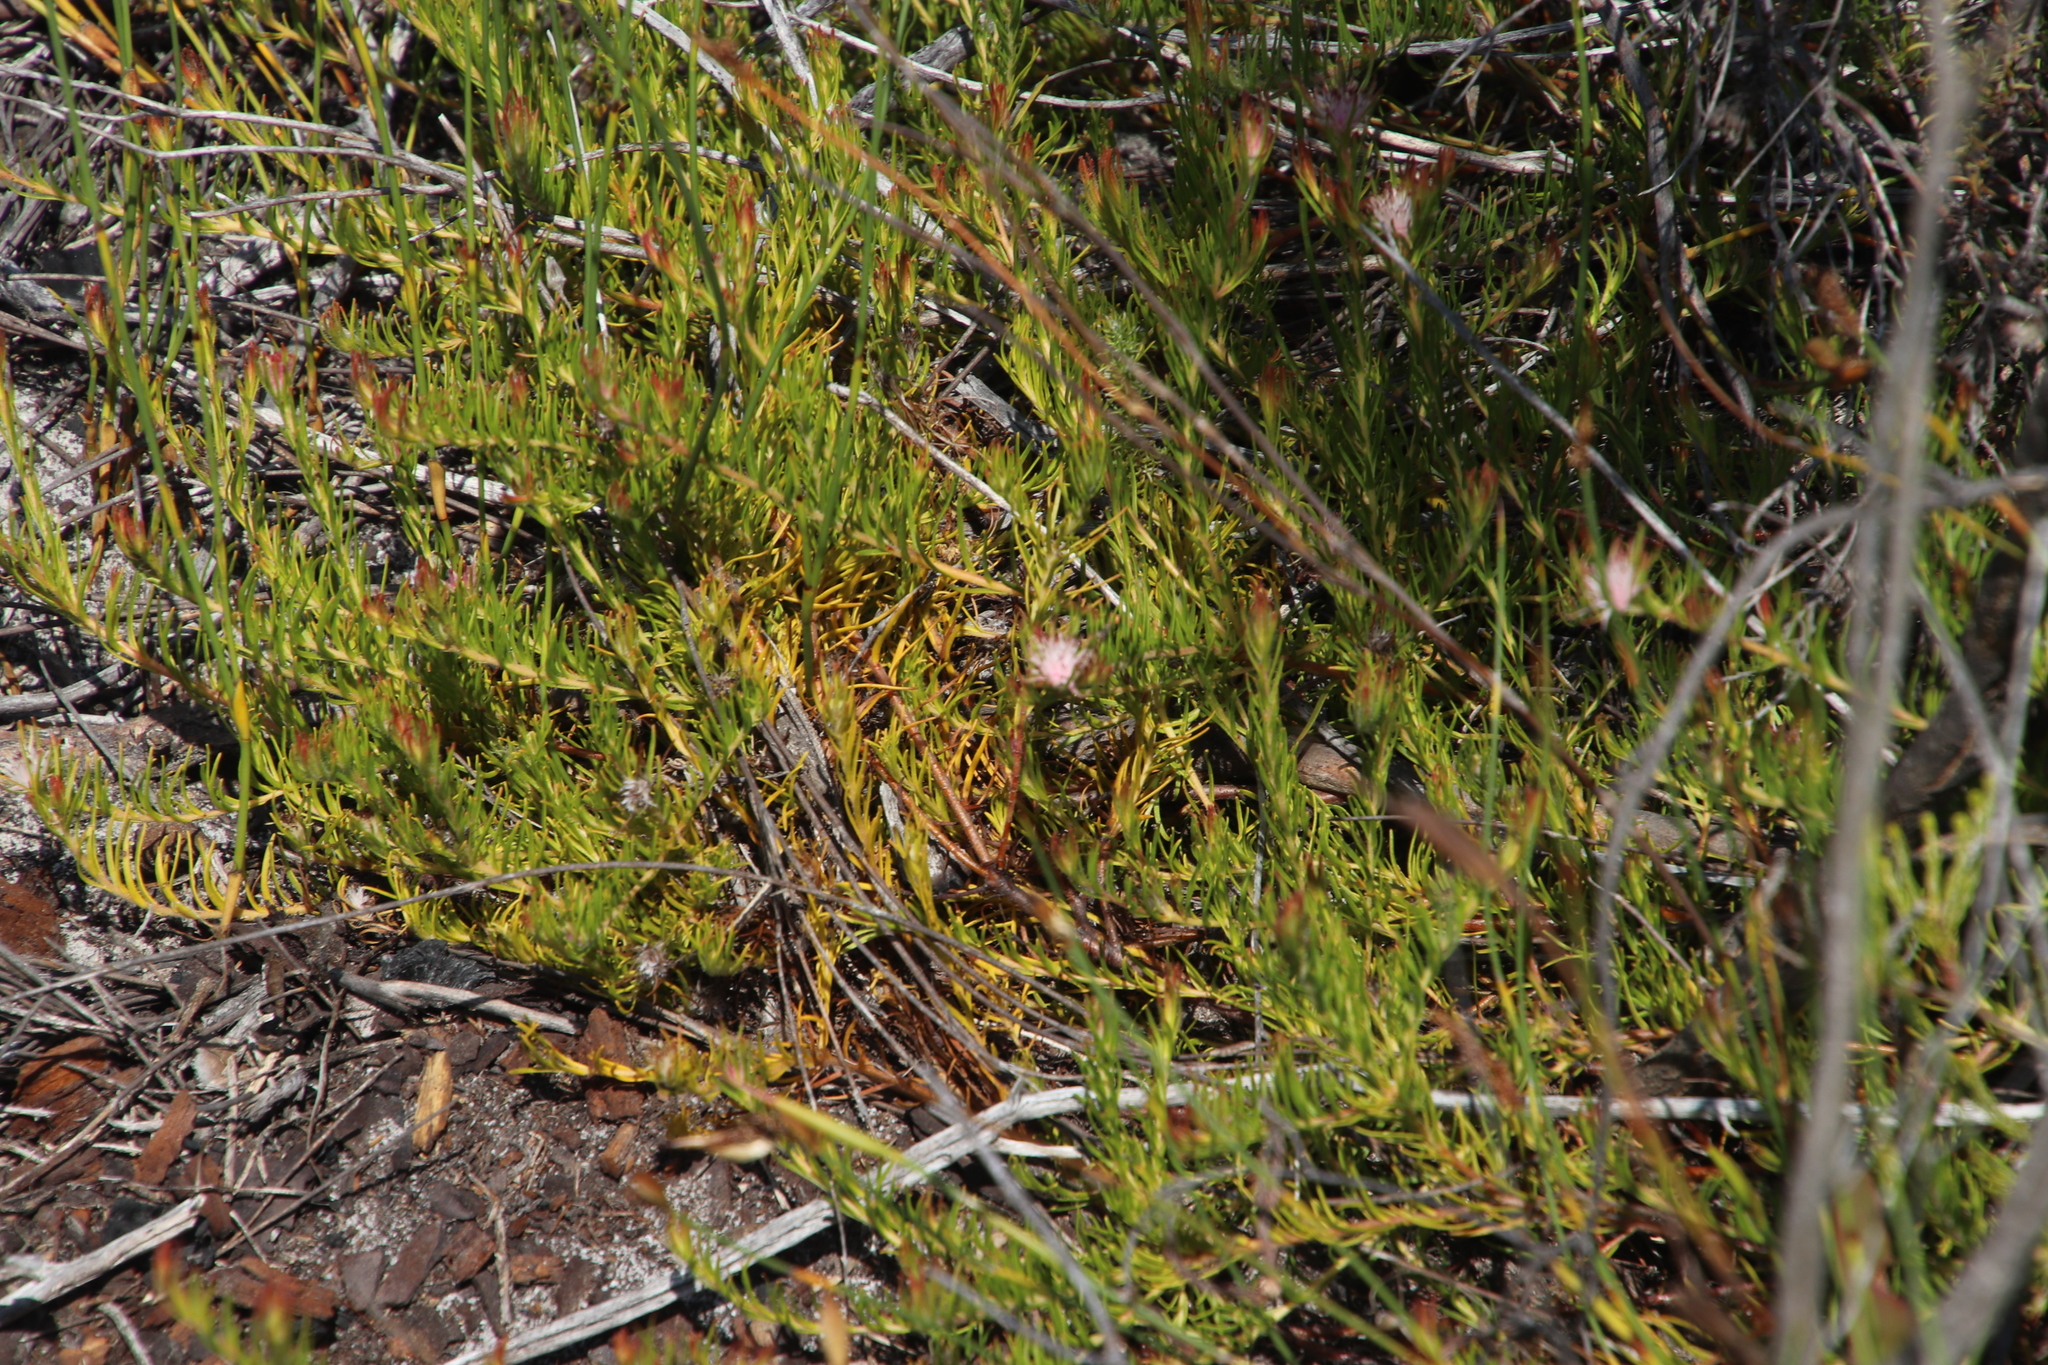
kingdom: Plantae
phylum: Tracheophyta
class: Magnoliopsida
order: Proteales
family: Proteaceae
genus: Diastella
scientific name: Diastella proteoides
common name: Flats silkypuff
